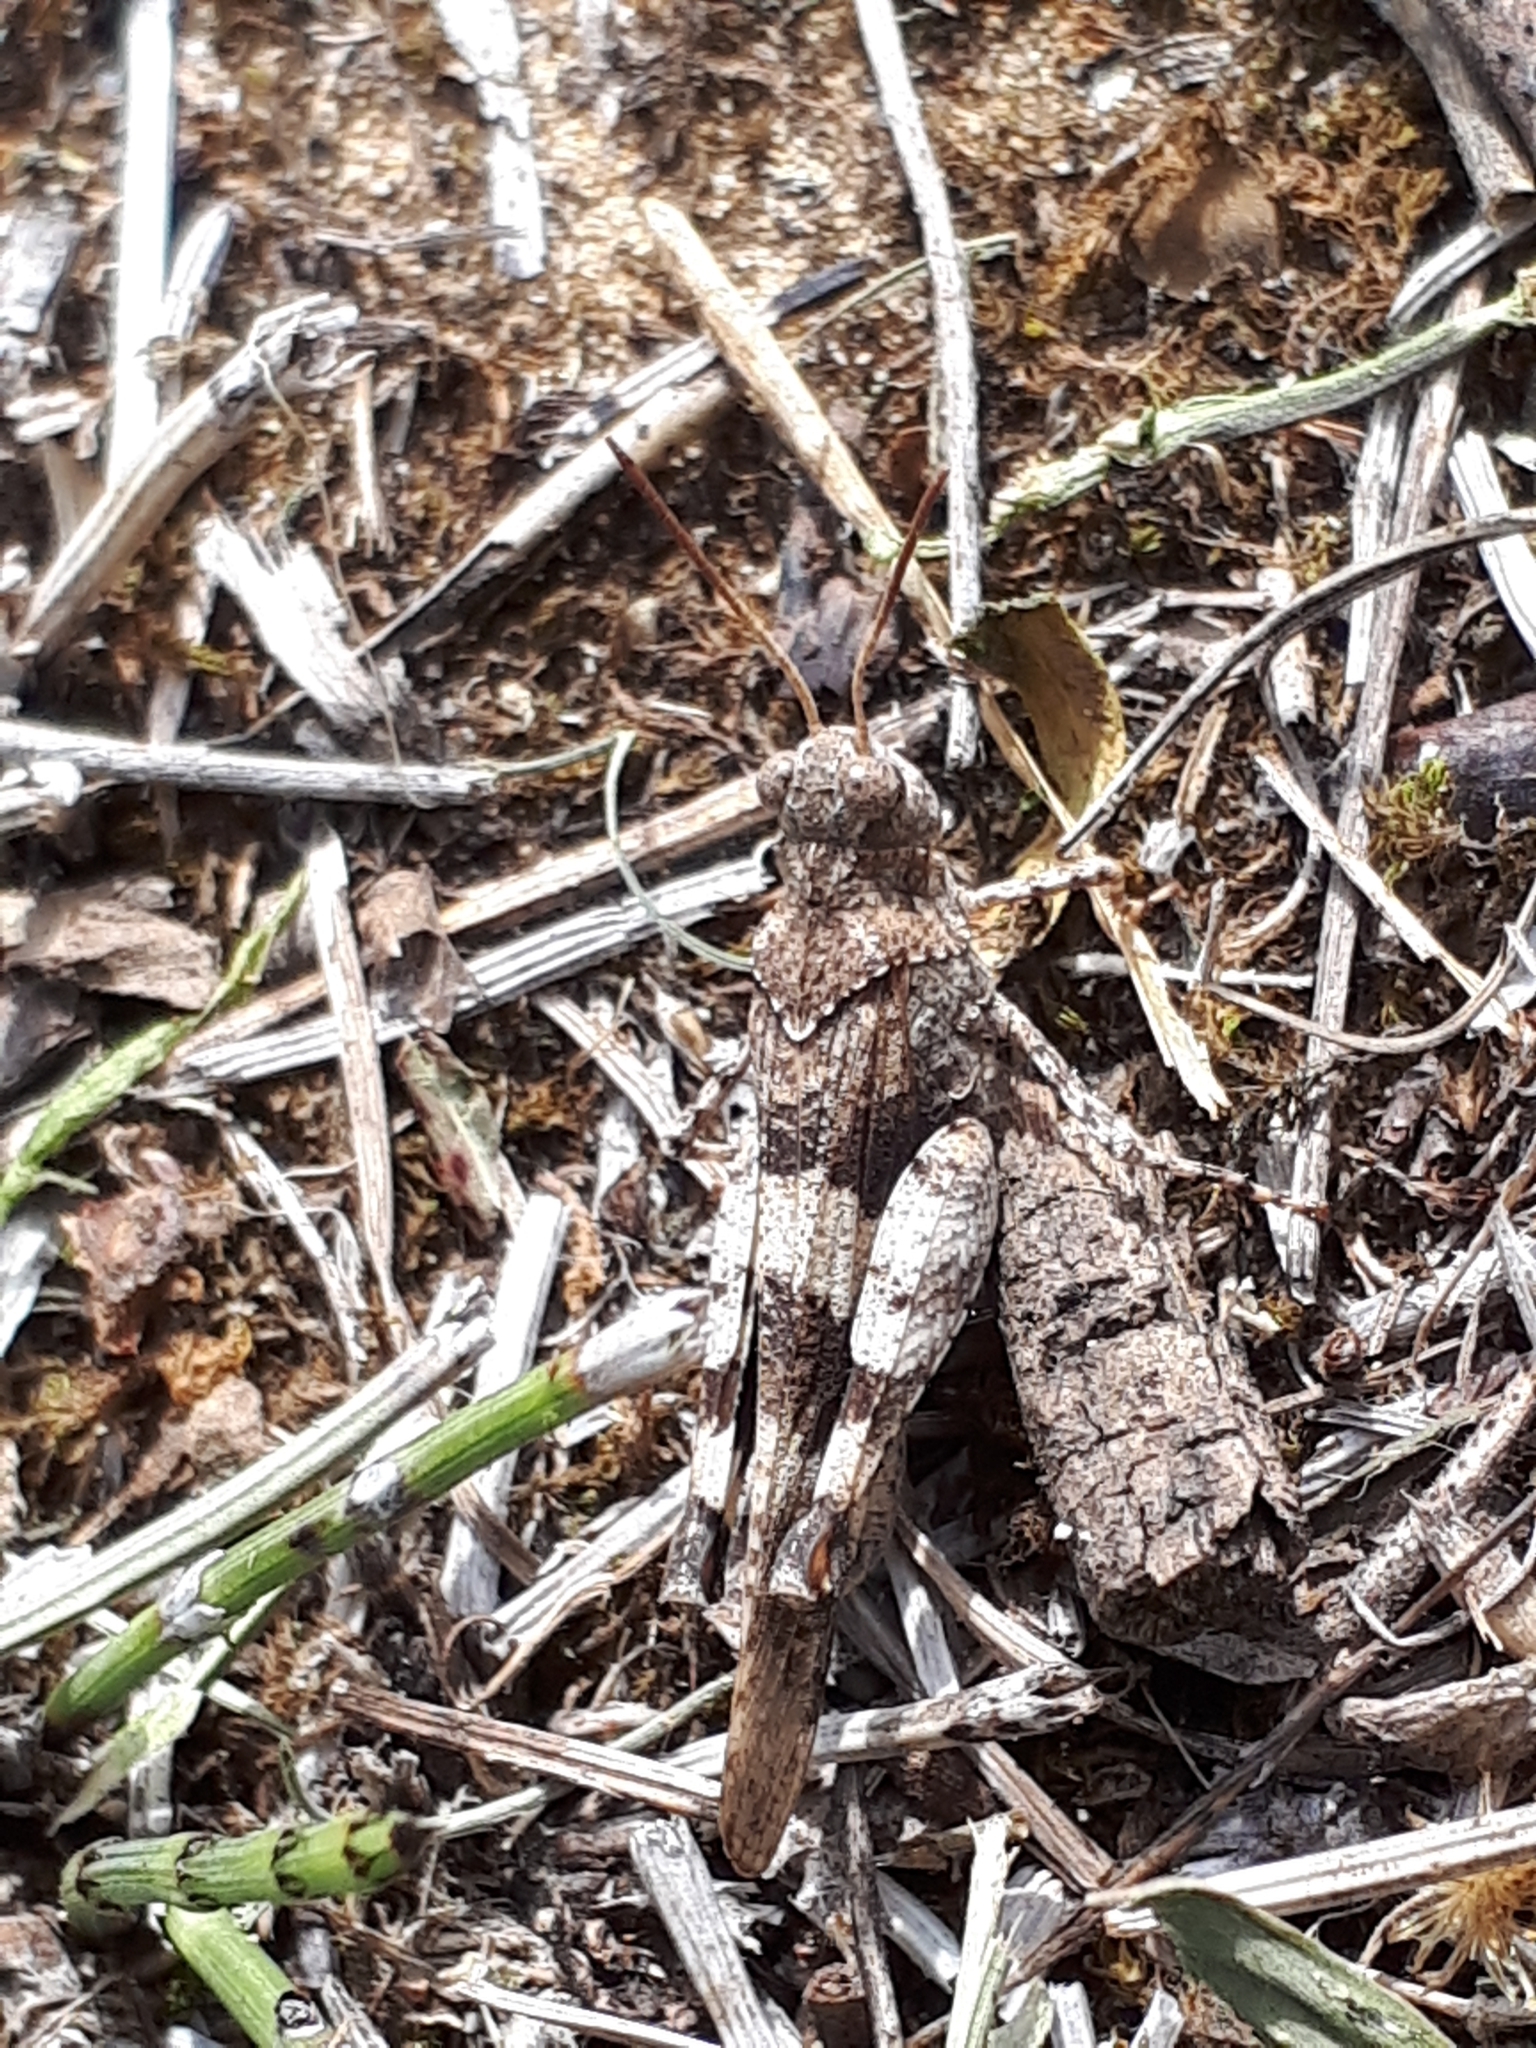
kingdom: Animalia
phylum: Arthropoda
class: Insecta
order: Orthoptera
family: Acrididae
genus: Oedipoda
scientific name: Oedipoda caerulescens
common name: Blue-winged grasshopper
